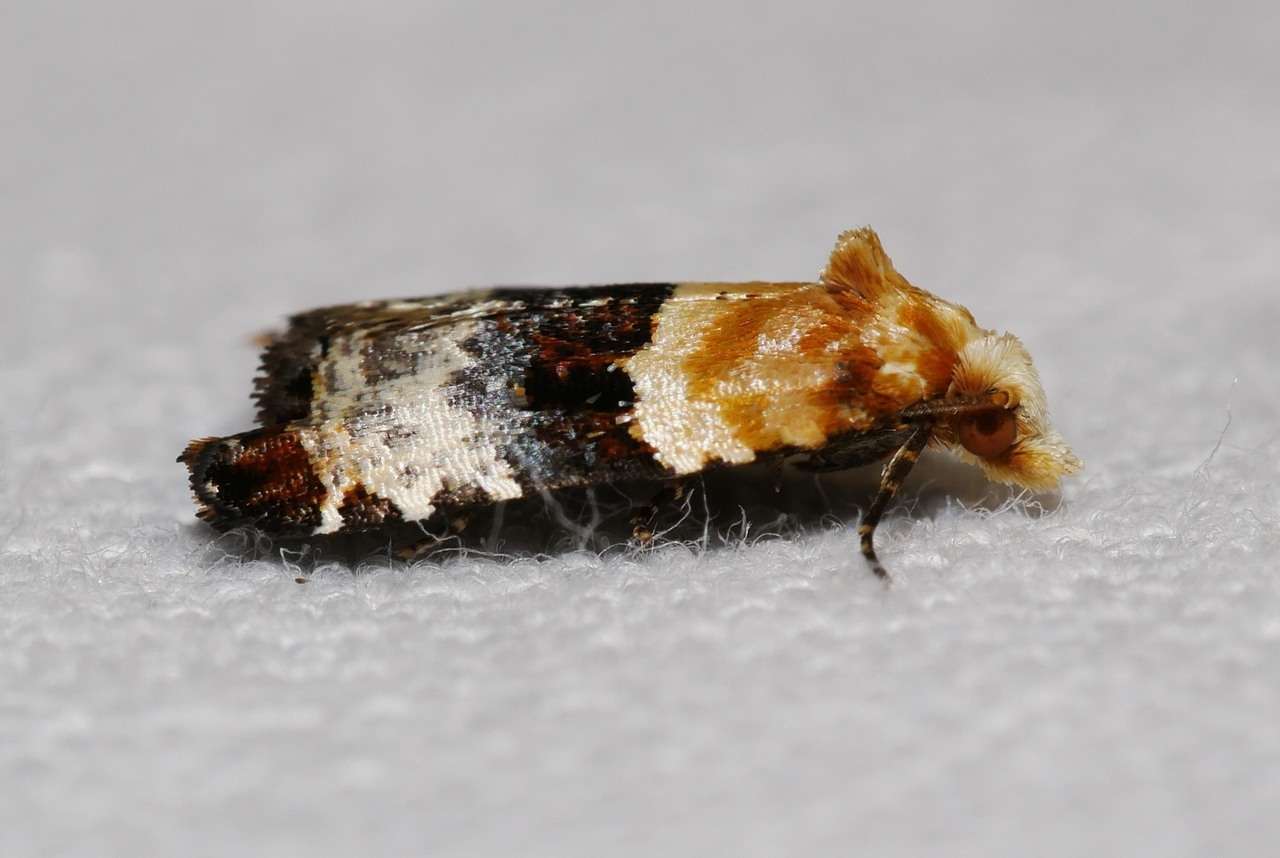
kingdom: Animalia
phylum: Arthropoda
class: Insecta
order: Lepidoptera
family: Tortricidae
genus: Authomaema
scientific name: Authomaema pentacosma
